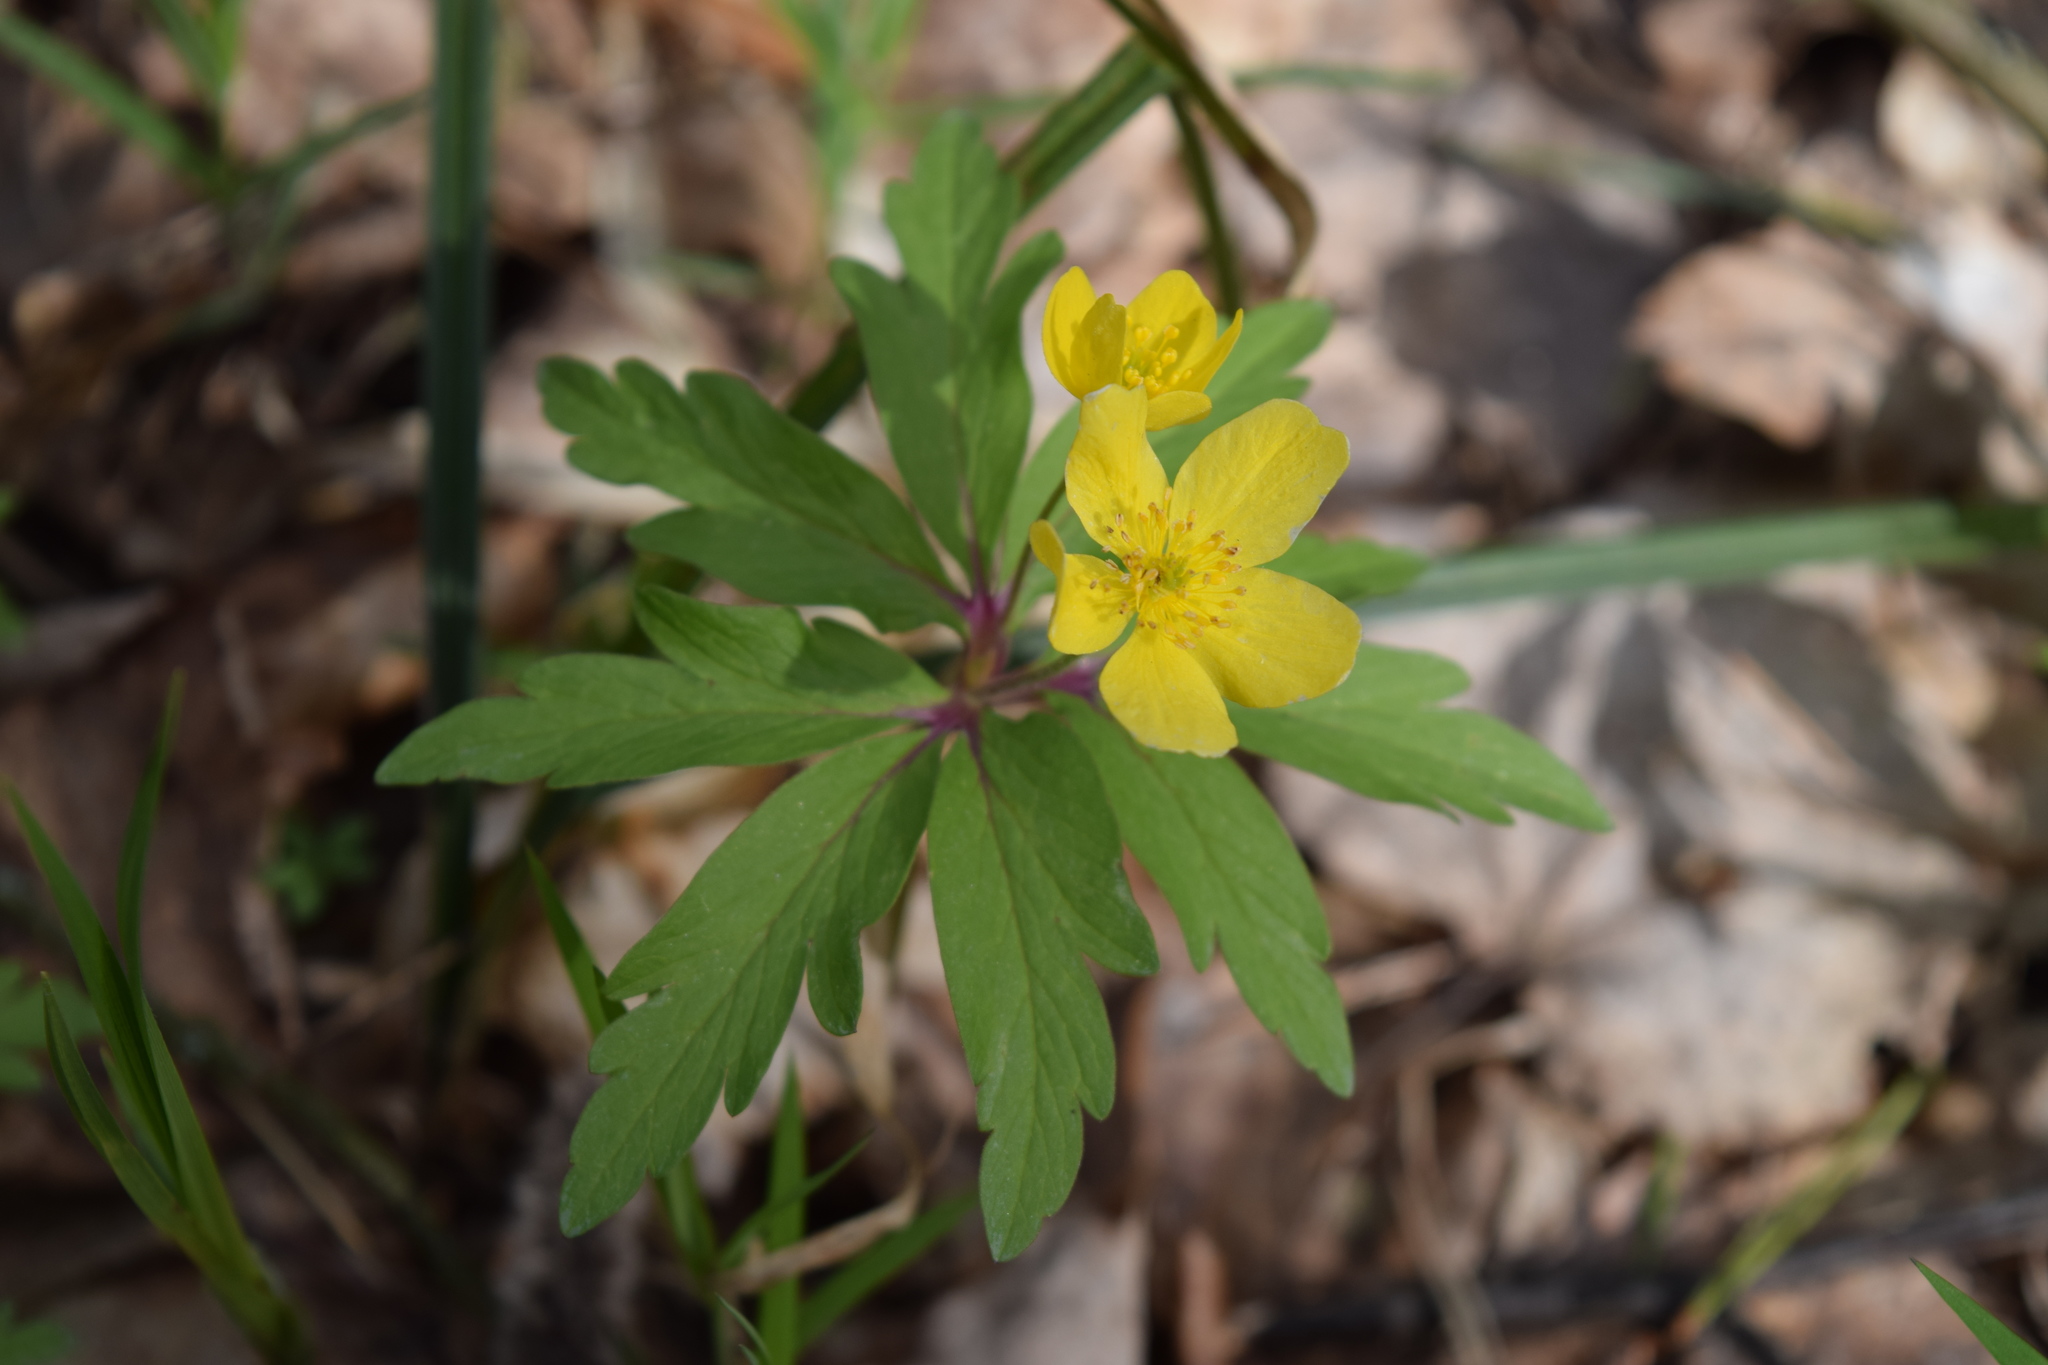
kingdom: Plantae
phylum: Tracheophyta
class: Magnoliopsida
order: Ranunculales
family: Ranunculaceae
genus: Anemone
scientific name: Anemone ranunculoides
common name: Yellow anemone
